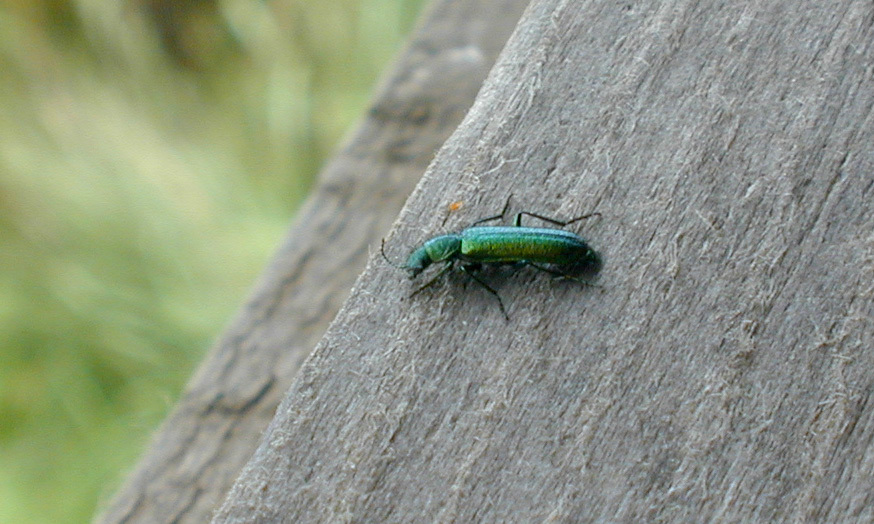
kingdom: Animalia
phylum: Arthropoda
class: Insecta
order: Coleoptera
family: Dasytidae
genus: Psilothrix
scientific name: Psilothrix viridicoerulea
